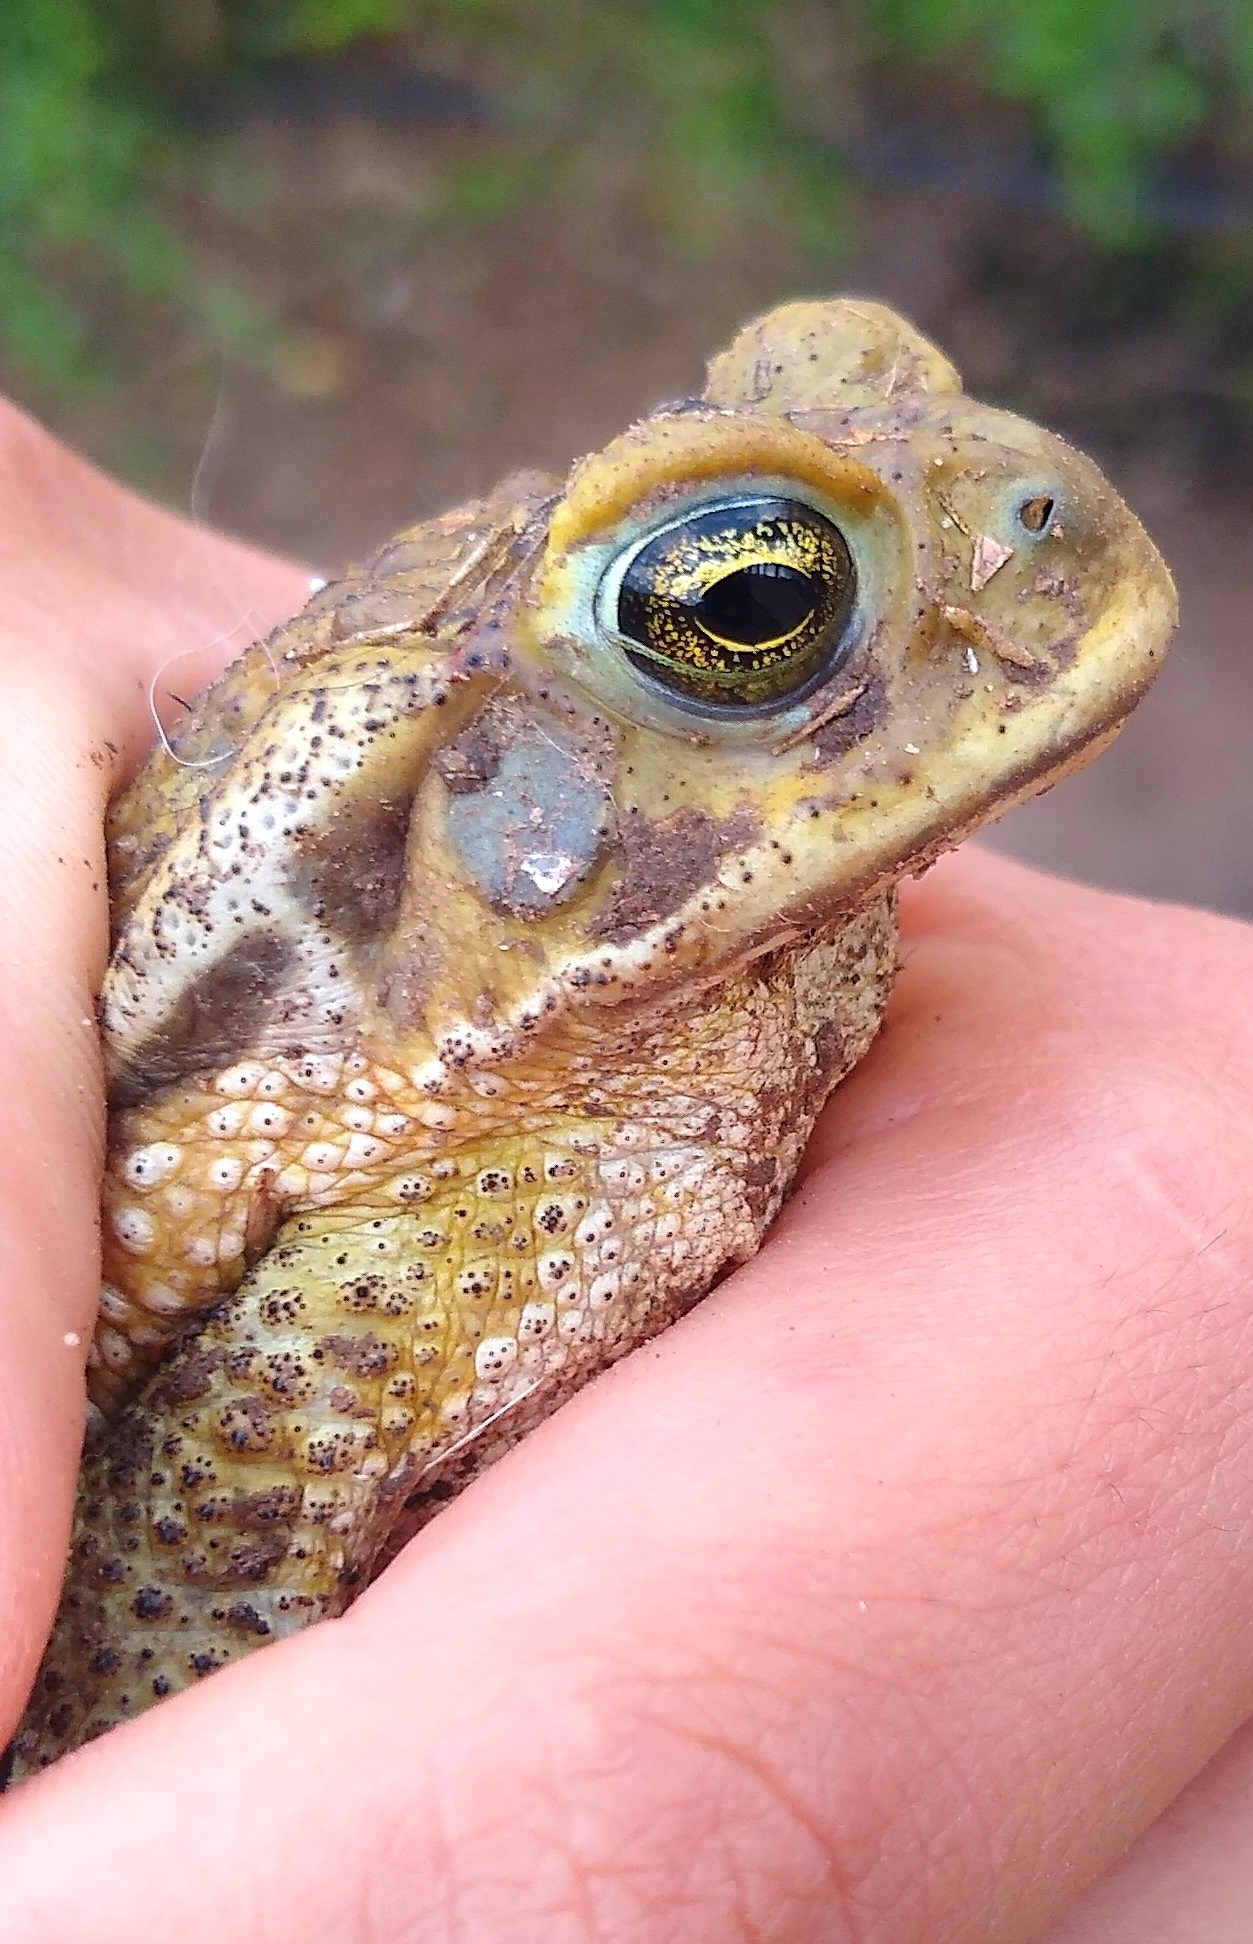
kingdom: Animalia
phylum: Chordata
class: Amphibia
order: Anura
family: Bufonidae
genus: Rhinella
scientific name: Rhinella arenarum
